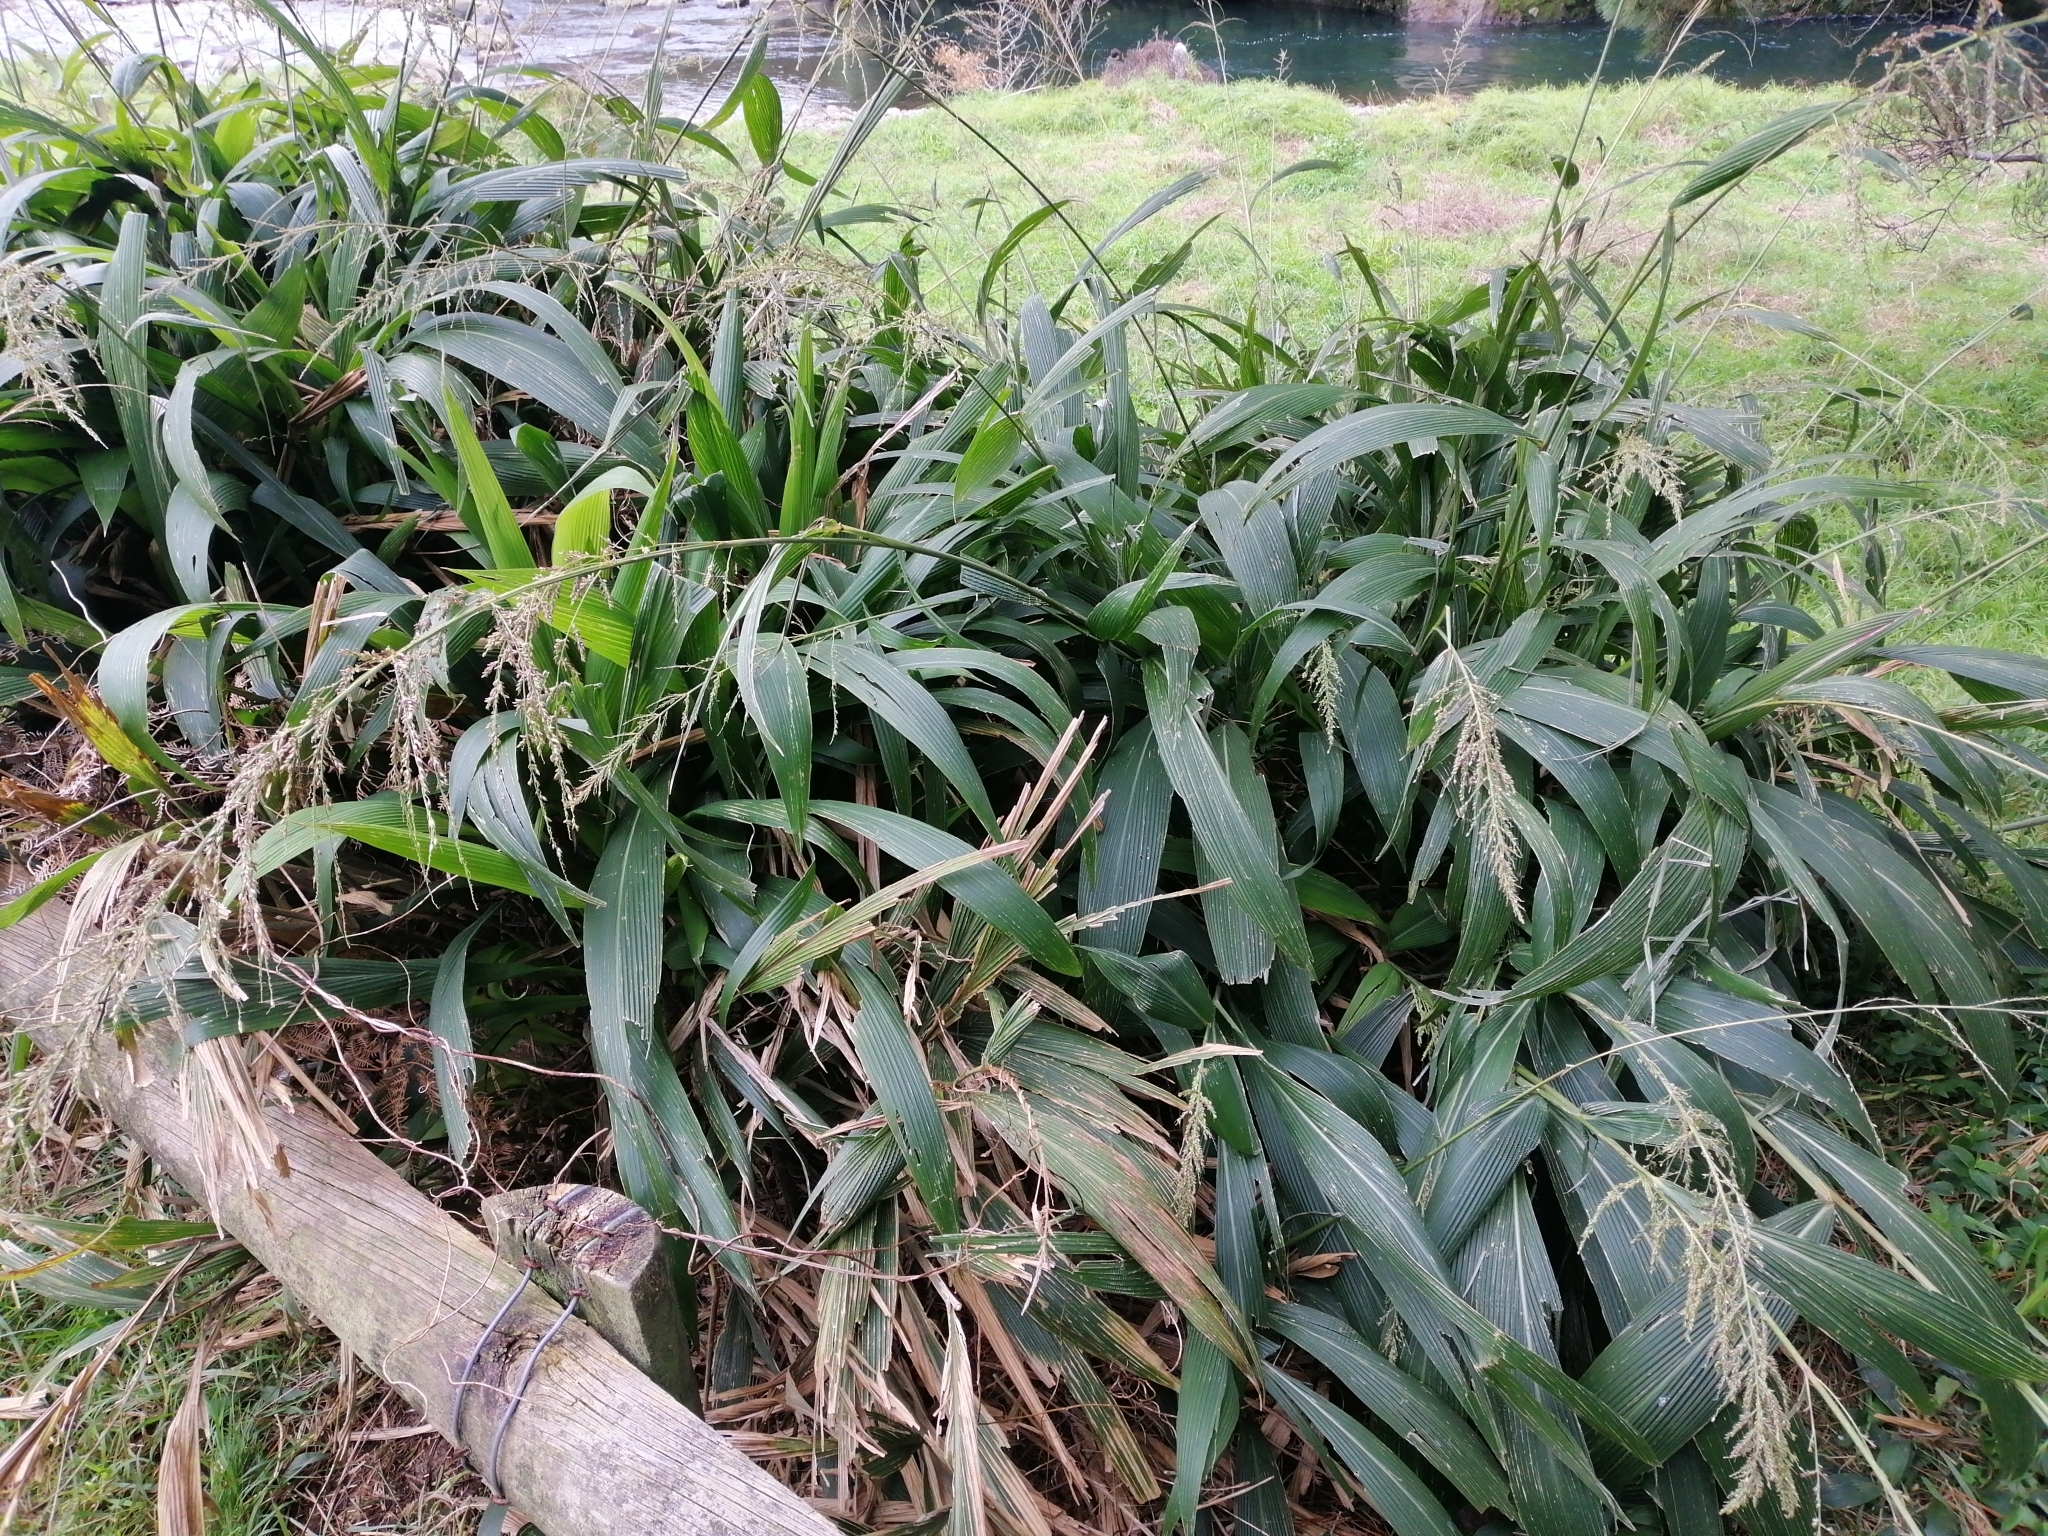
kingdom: Plantae
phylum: Tracheophyta
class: Liliopsida
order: Poales
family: Poaceae
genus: Setaria
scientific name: Setaria palmifolia
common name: Broadleaved bristlegrass
